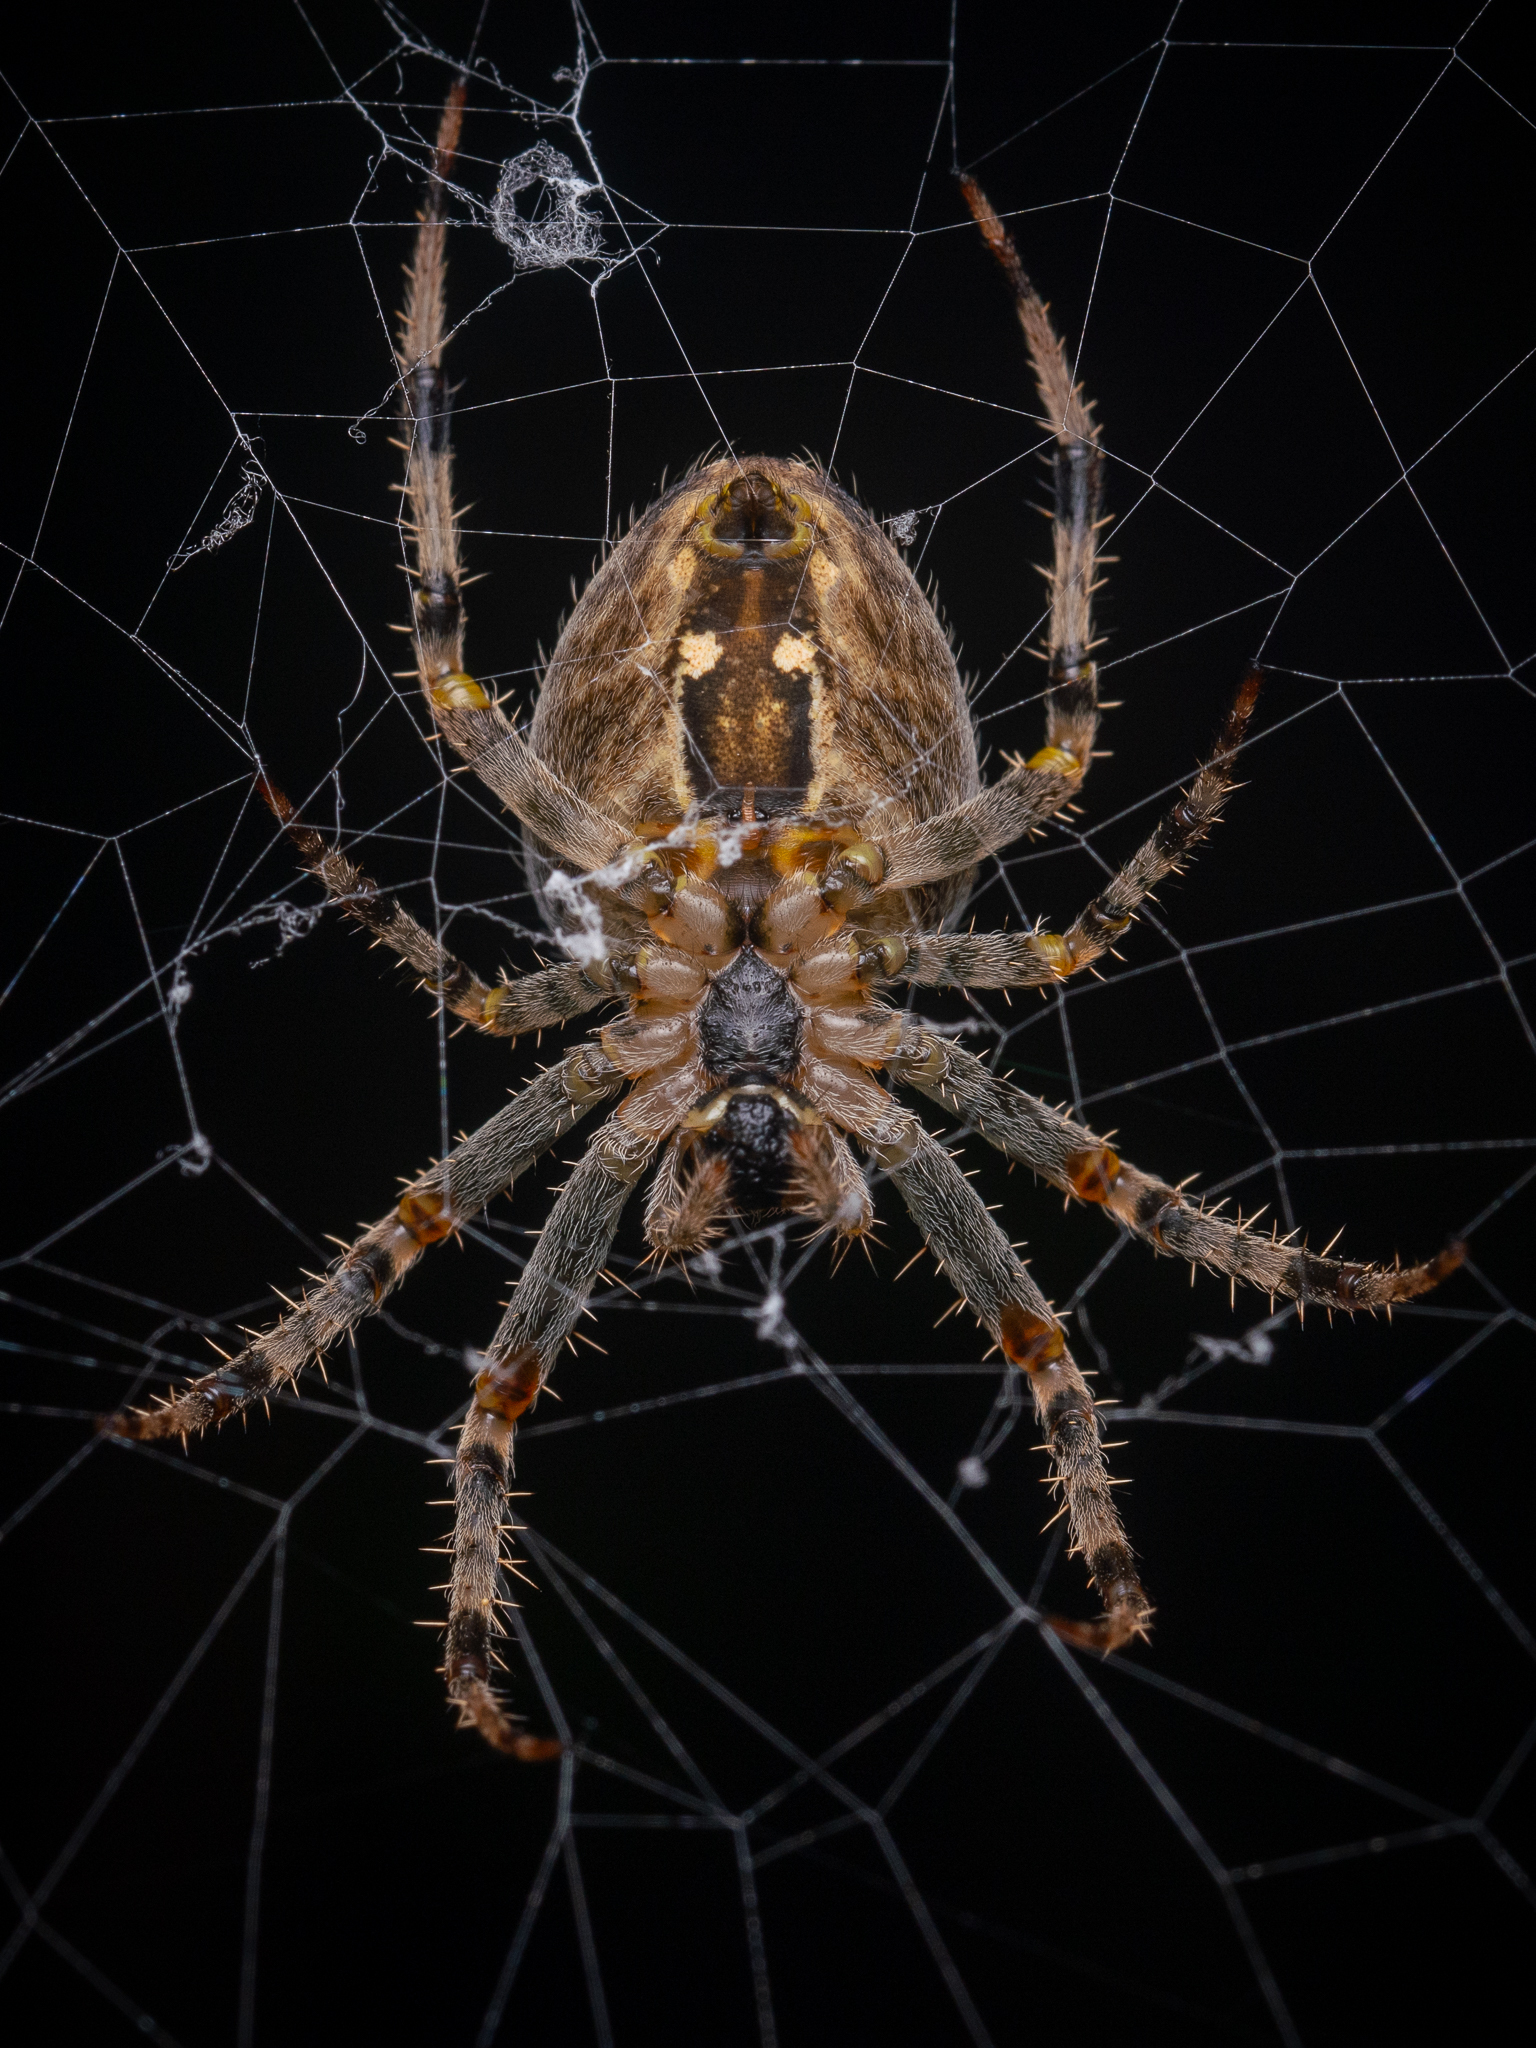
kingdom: Animalia
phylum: Arthropoda
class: Arachnida
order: Araneae
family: Araneidae
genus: Araneus
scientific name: Araneus diadematus
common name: Cross orbweaver
